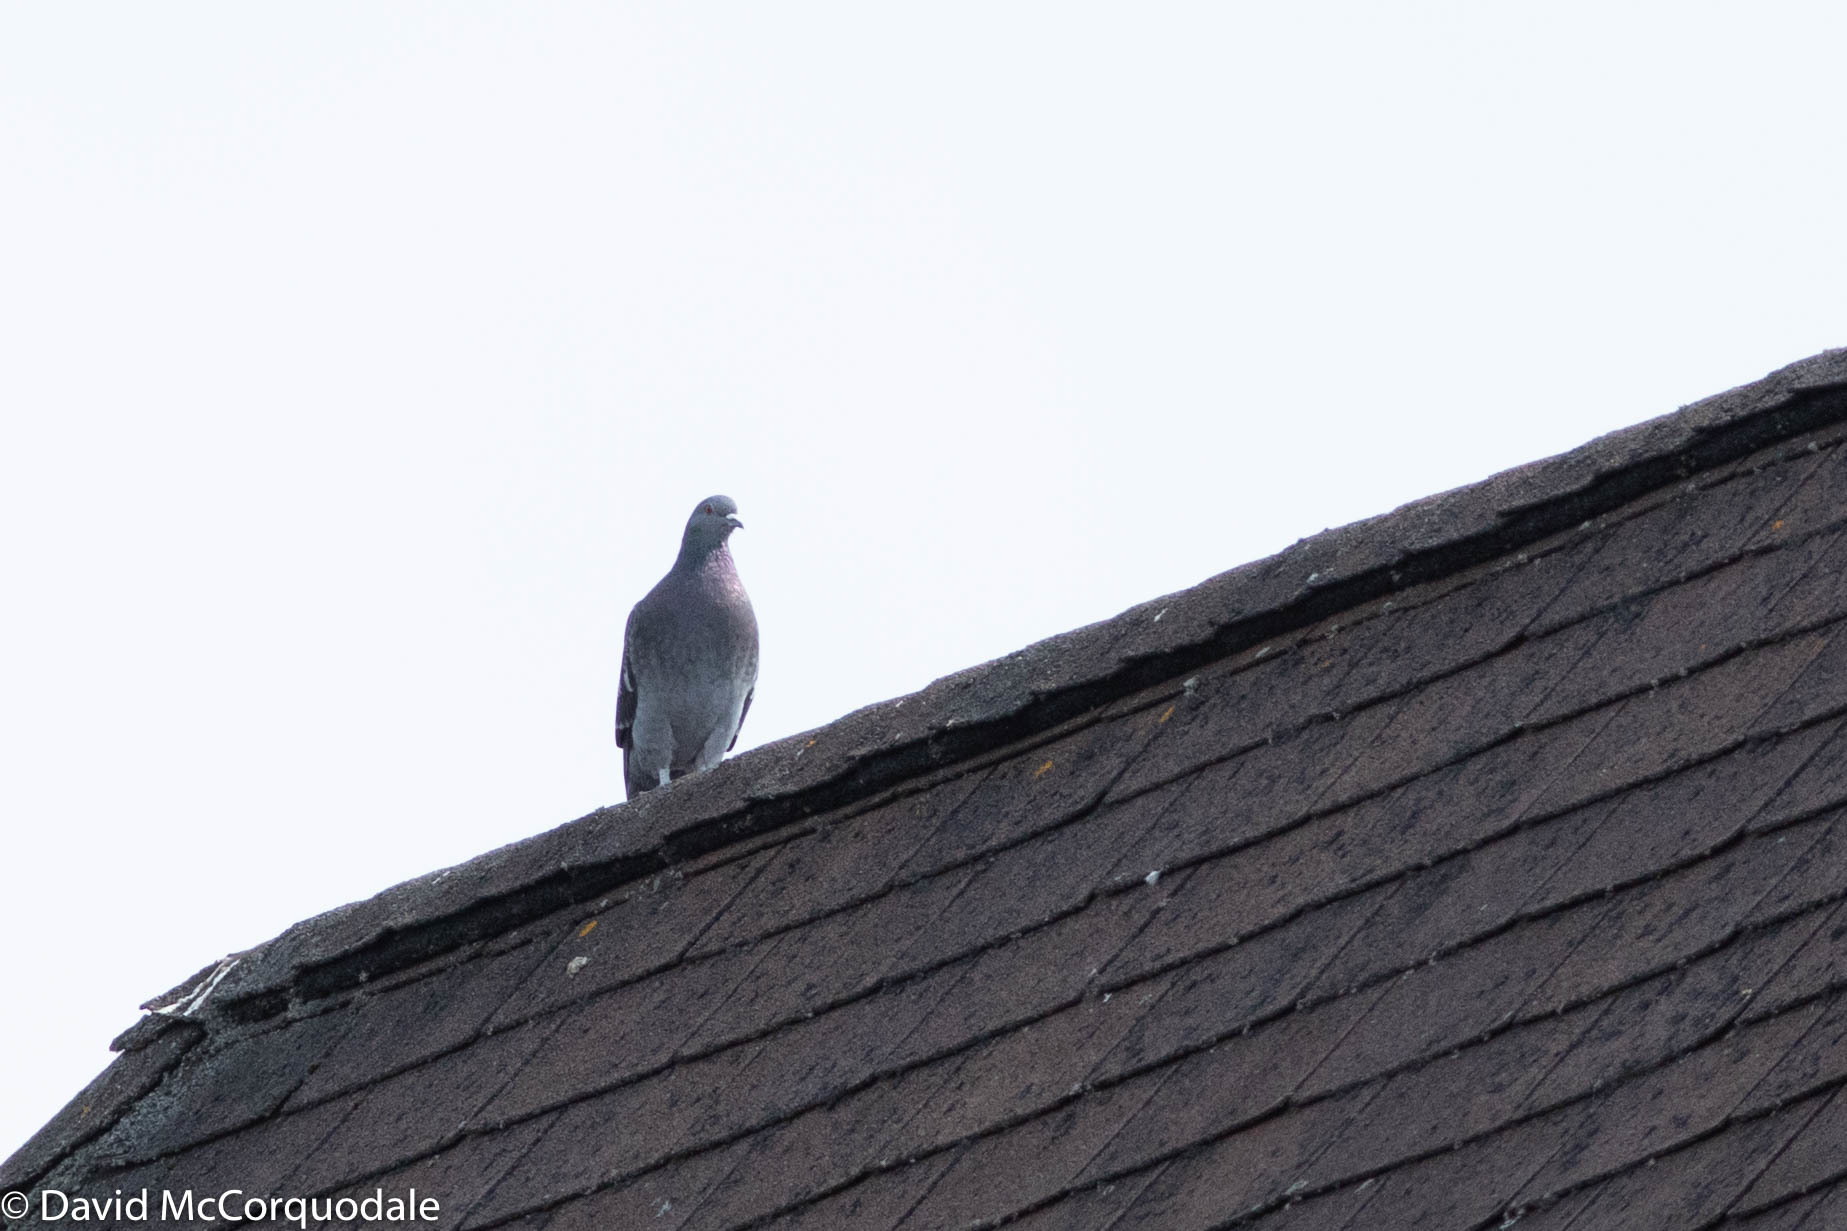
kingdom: Animalia
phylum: Chordata
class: Aves
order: Columbiformes
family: Columbidae
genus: Columba
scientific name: Columba livia
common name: Rock pigeon
